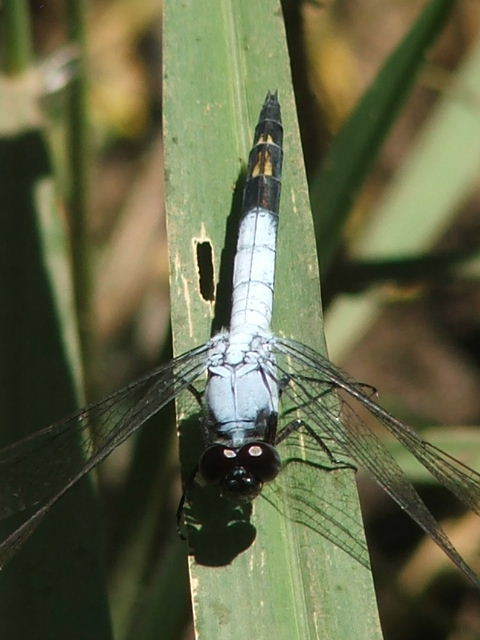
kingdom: Animalia
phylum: Arthropoda
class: Insecta
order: Odonata
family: Libellulidae
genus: Nesciothemis
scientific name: Nesciothemis farinosa
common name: Eastern blacktail
